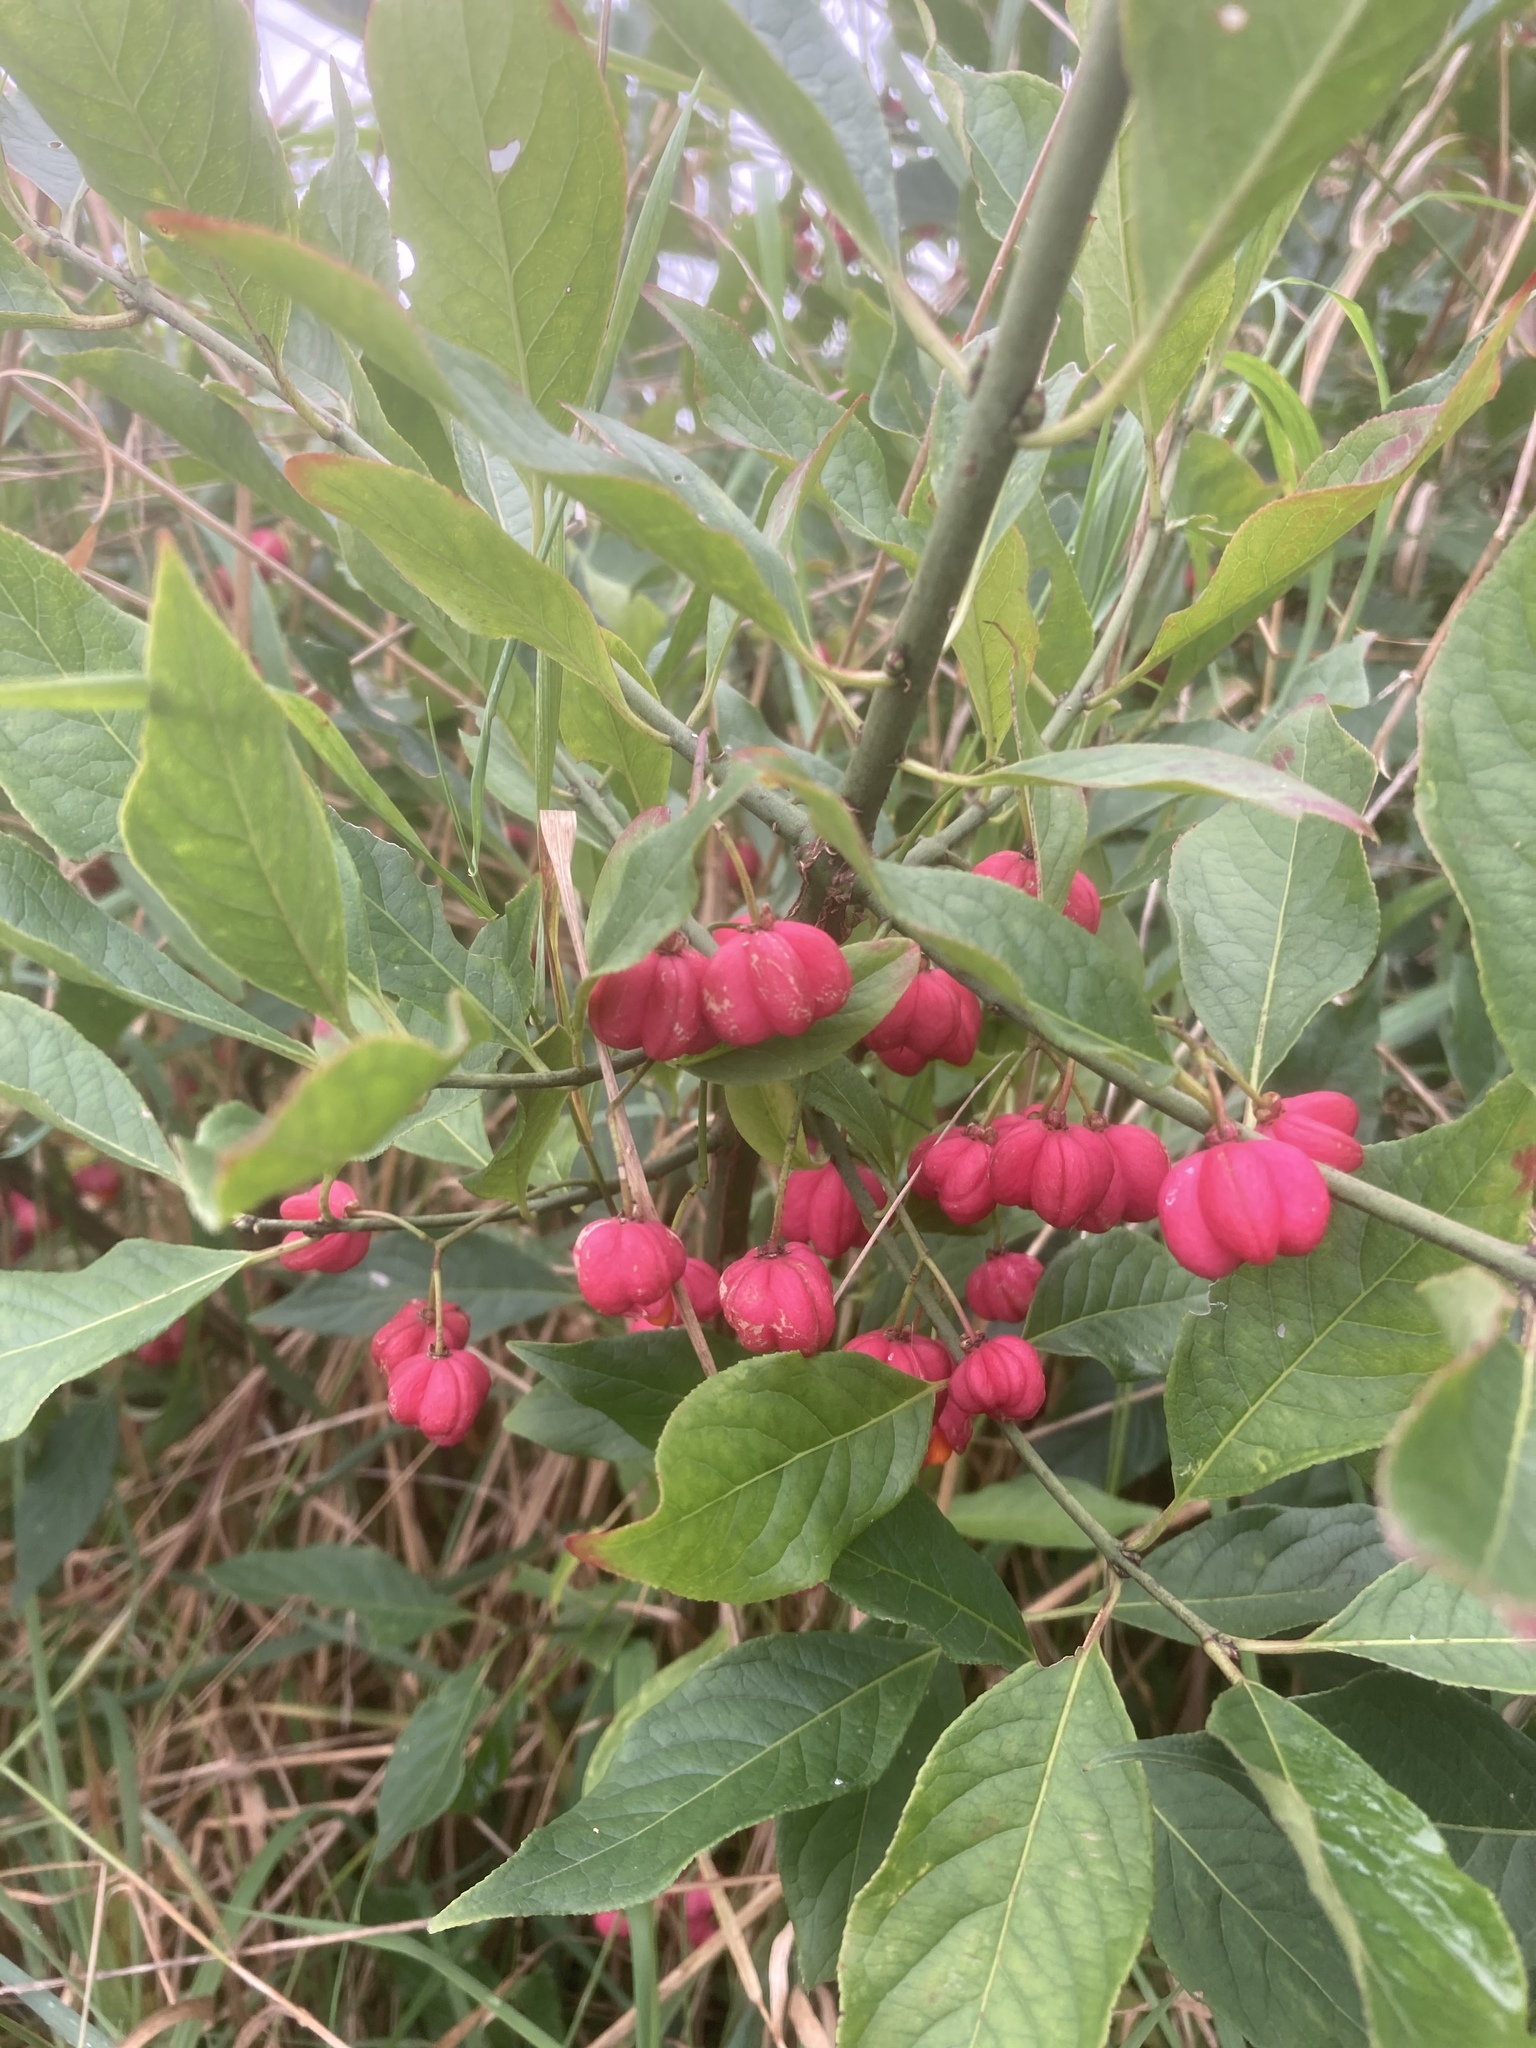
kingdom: Plantae
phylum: Tracheophyta
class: Magnoliopsida
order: Celastrales
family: Celastraceae
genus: Euonymus
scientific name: Euonymus europaeus
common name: Spindle
